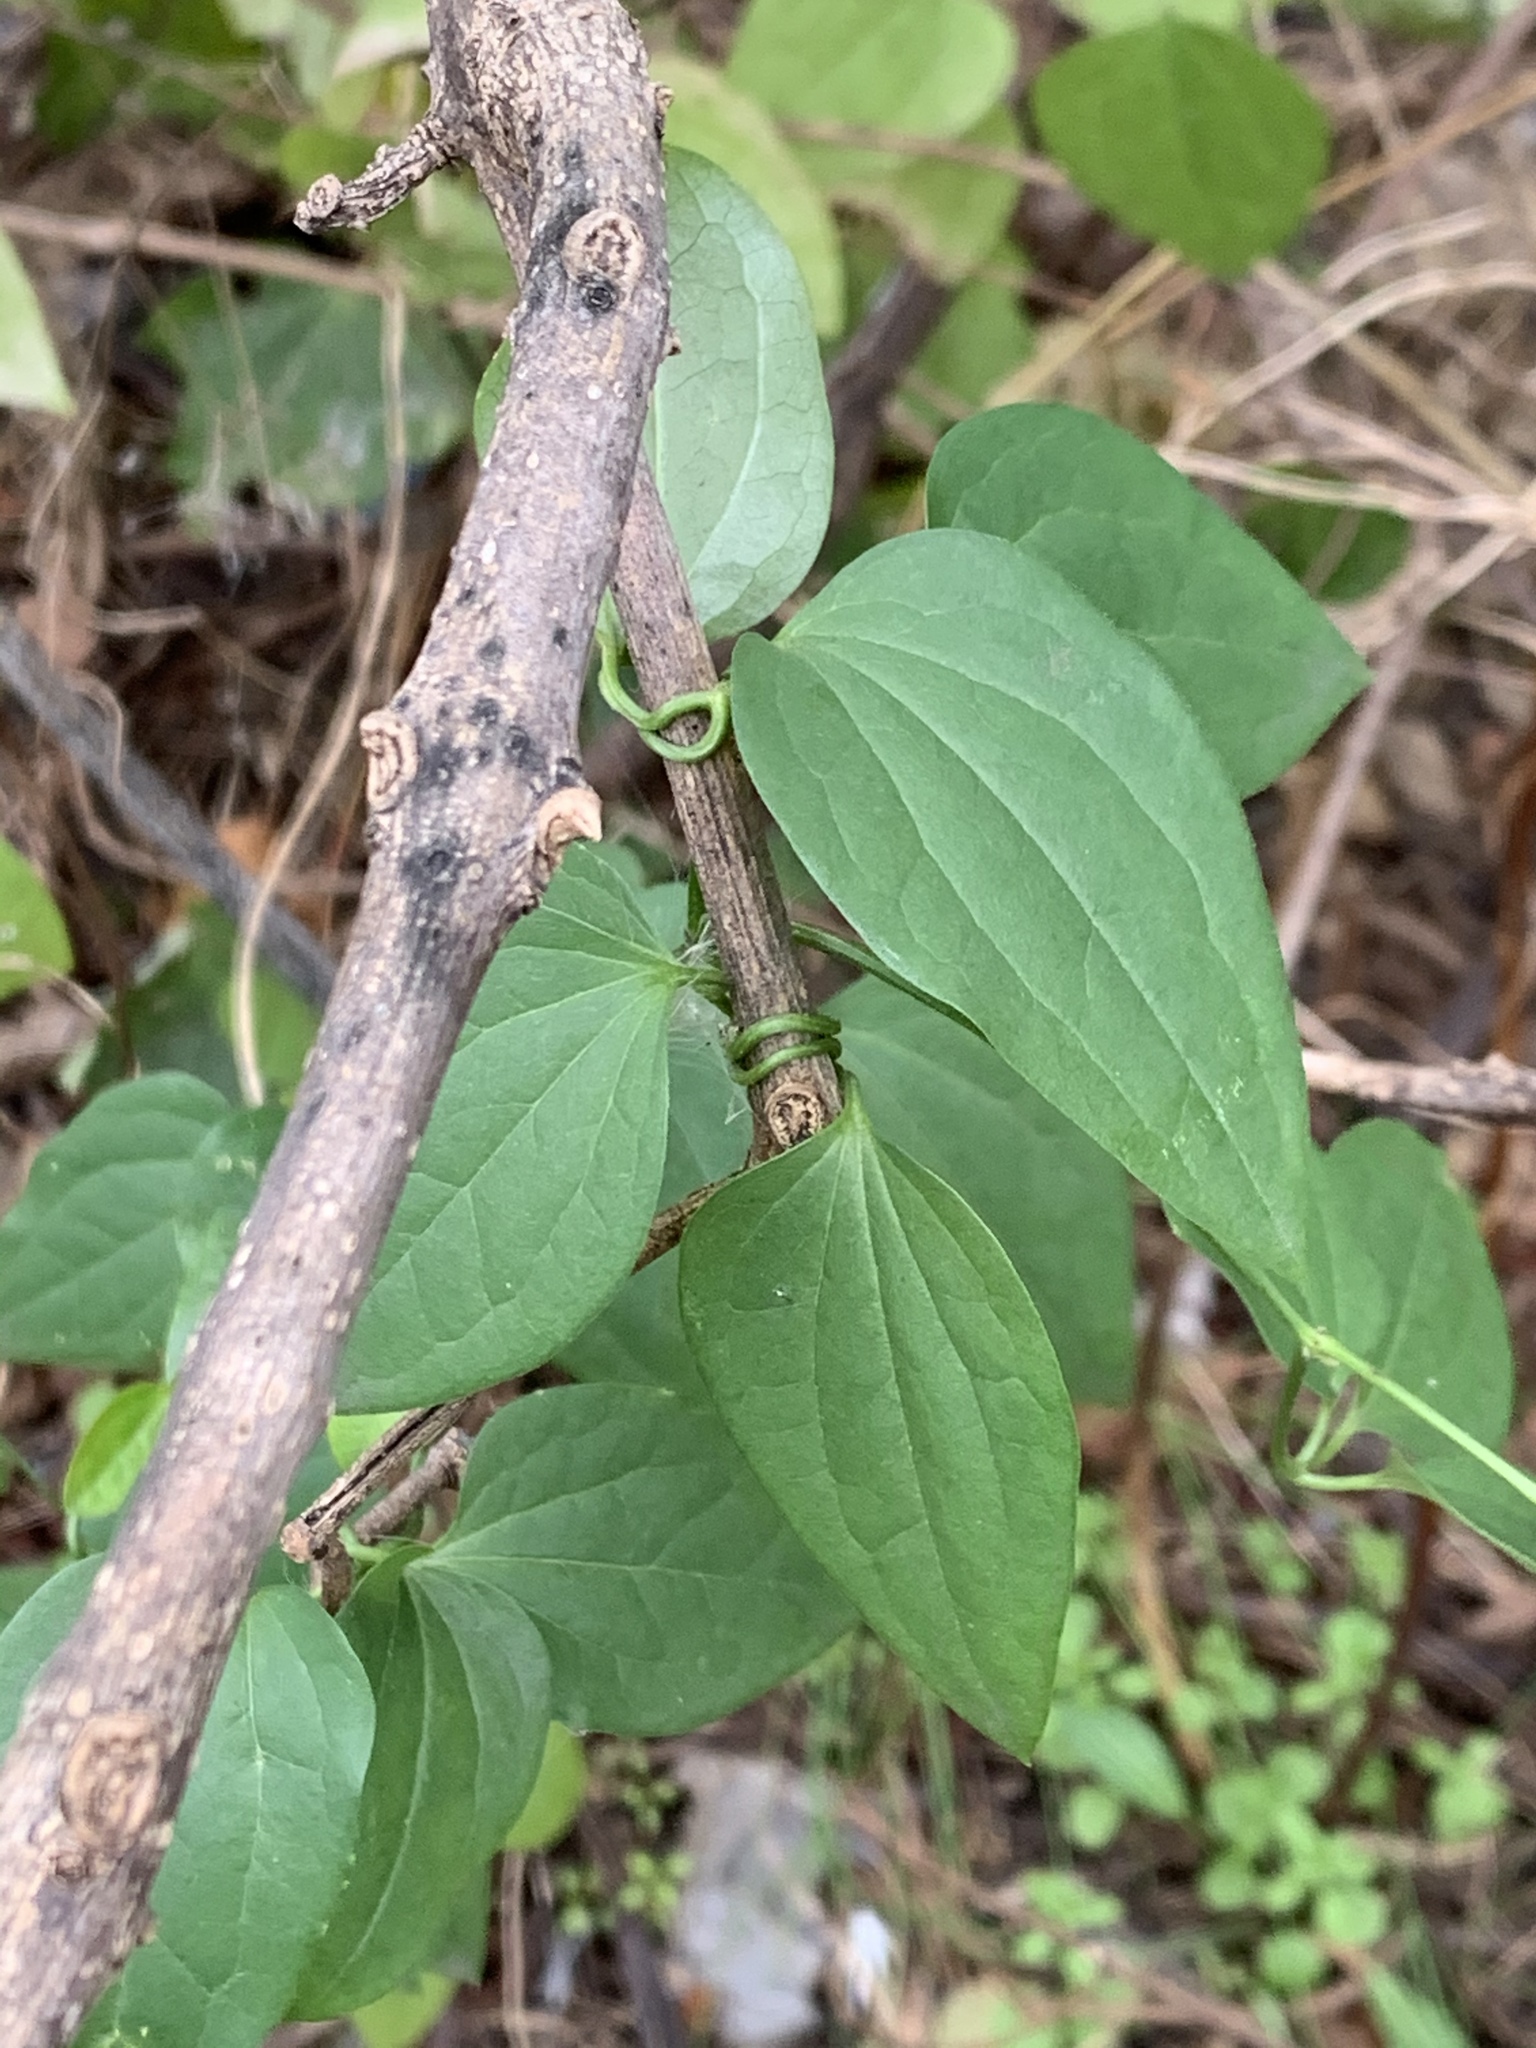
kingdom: Plantae
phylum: Tracheophyta
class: Magnoliopsida
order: Ranunculales
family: Ranunculaceae
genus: Clematis
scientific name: Clematis terniflora
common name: Sweet autumn clematis
